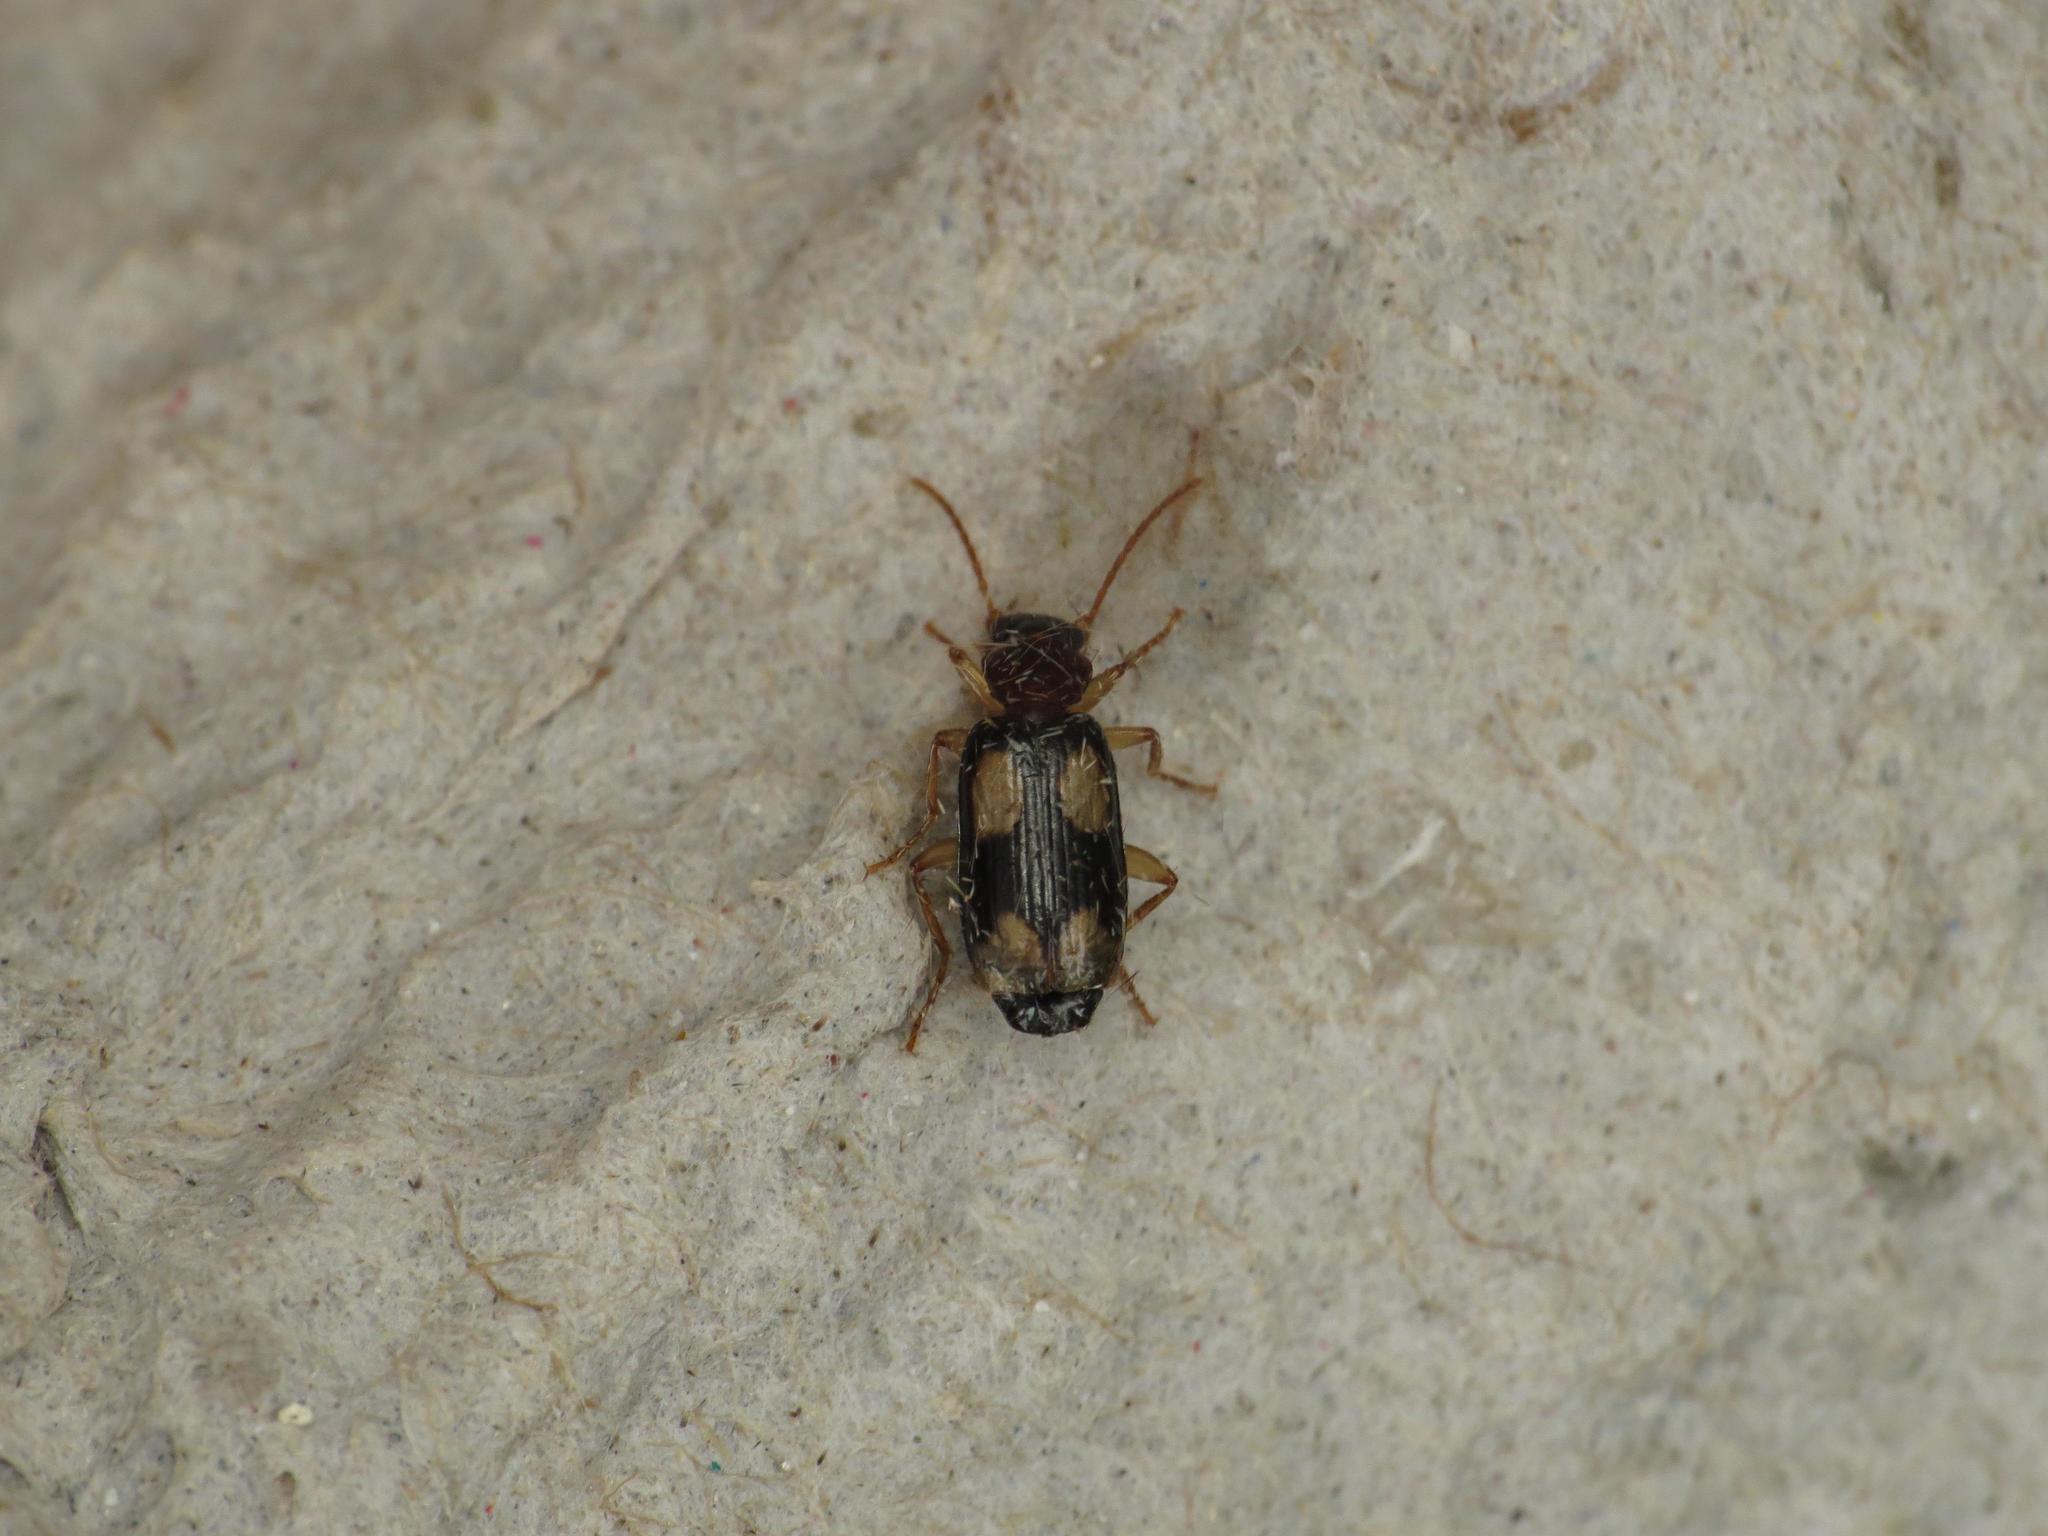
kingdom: Animalia
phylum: Arthropoda
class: Insecta
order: Coleoptera
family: Carabidae
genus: Dromius
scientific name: Dromius quadrimaculatus
